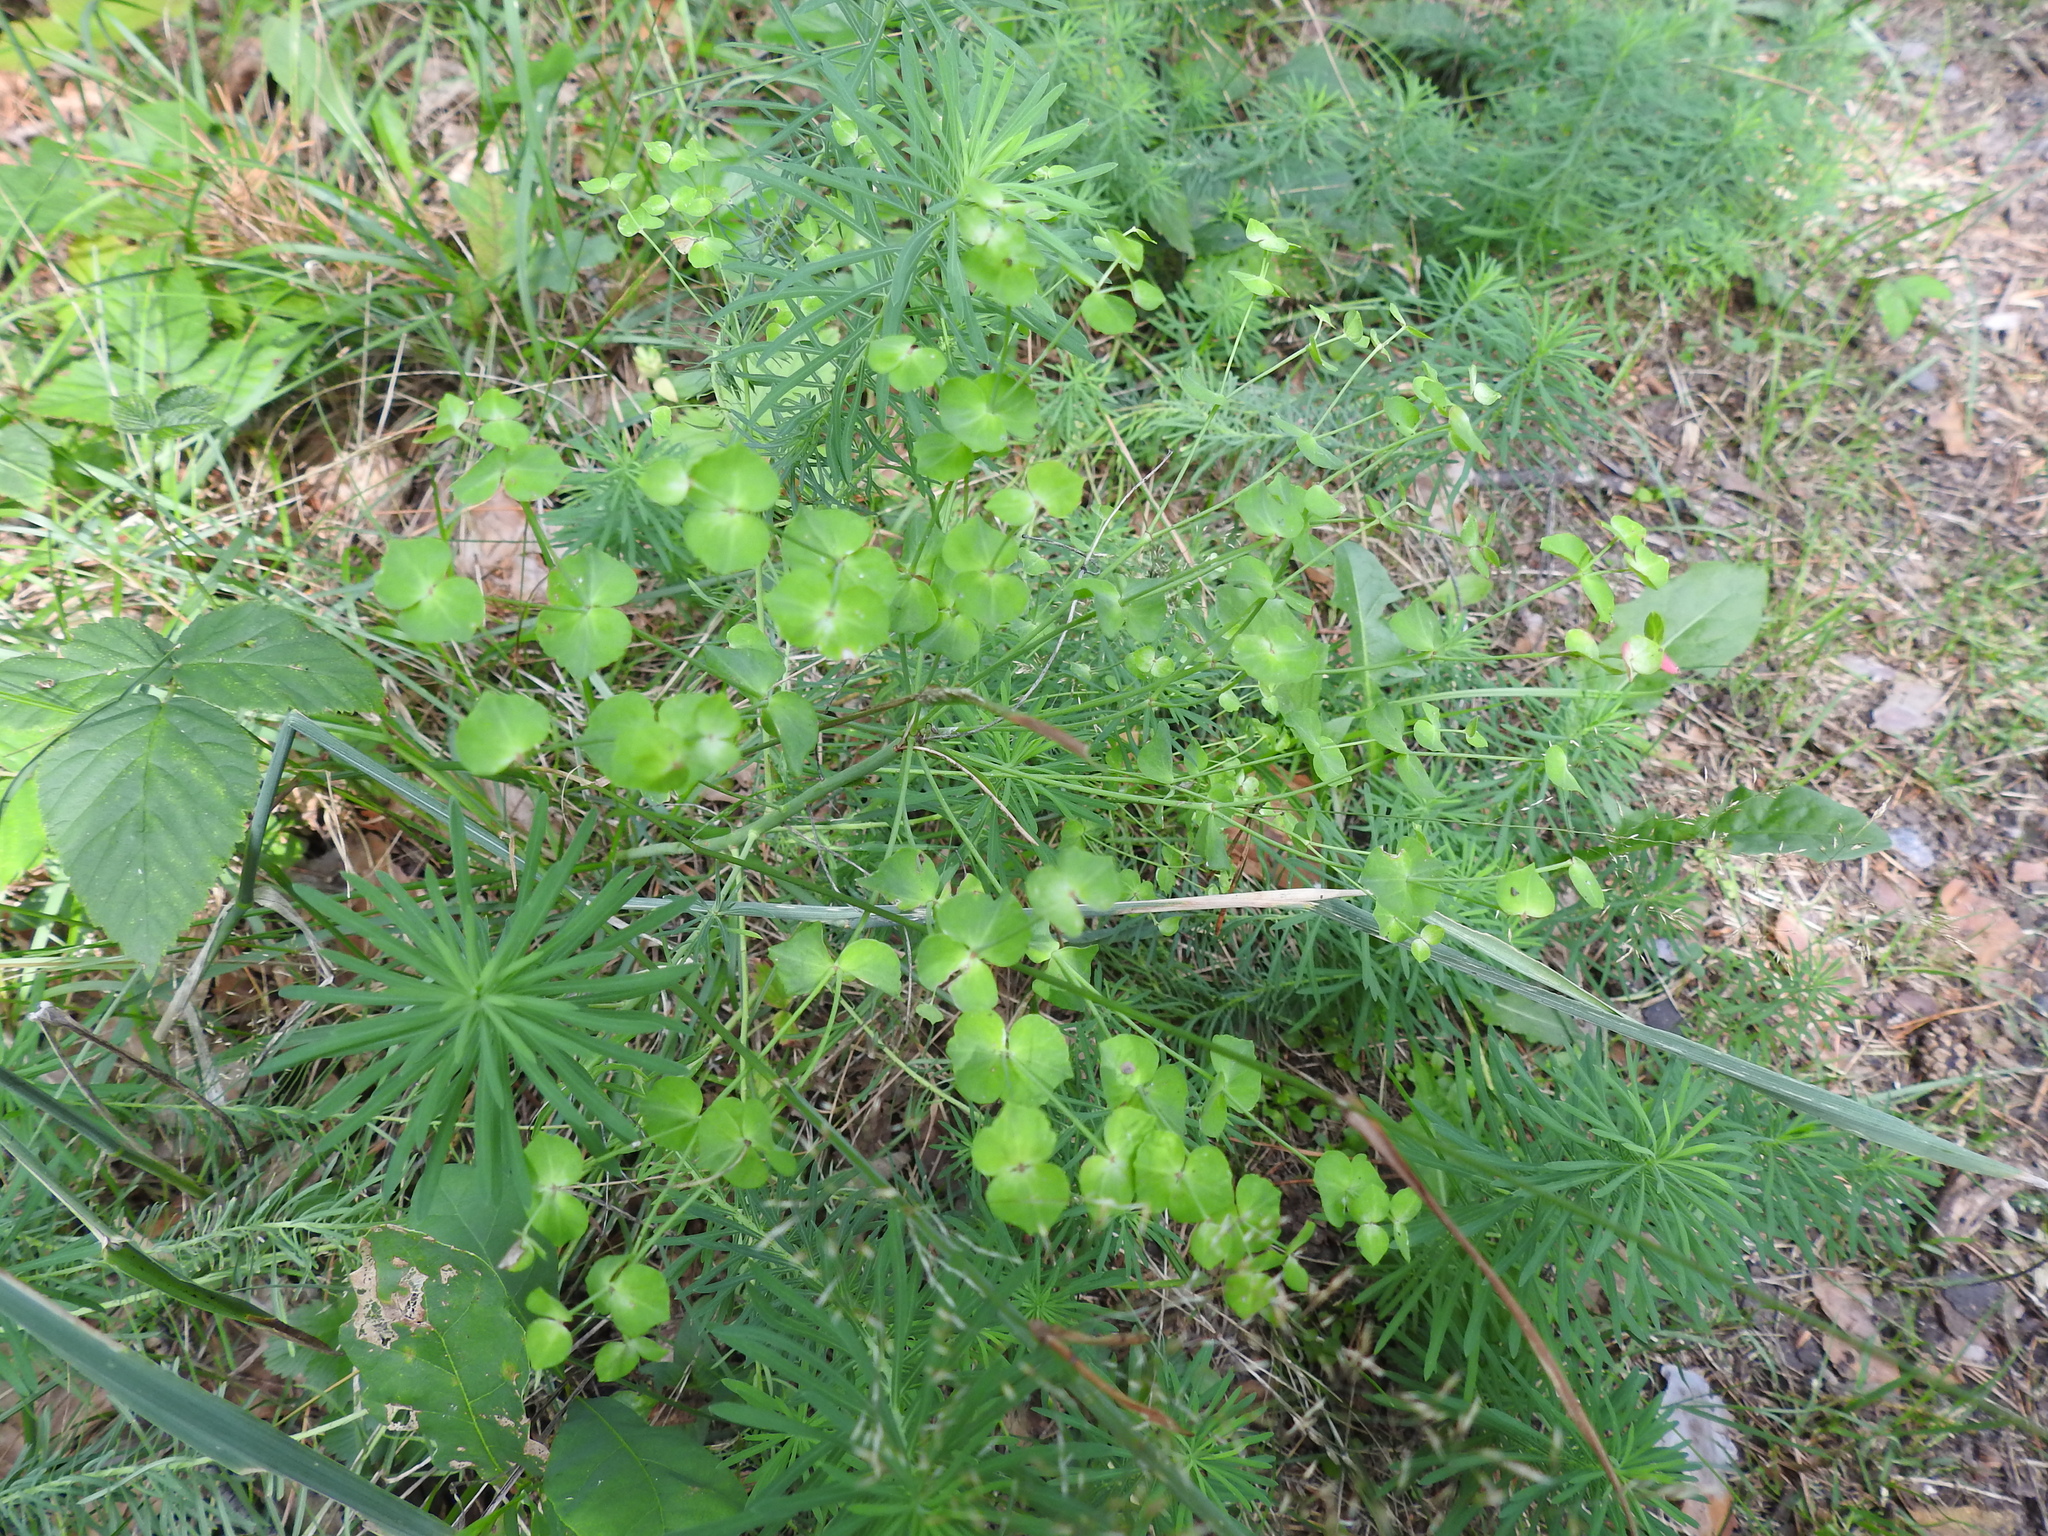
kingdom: Plantae
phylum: Tracheophyta
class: Magnoliopsida
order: Malpighiales
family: Euphorbiaceae
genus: Euphorbia
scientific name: Euphorbia cyparissias
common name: Cypress spurge
